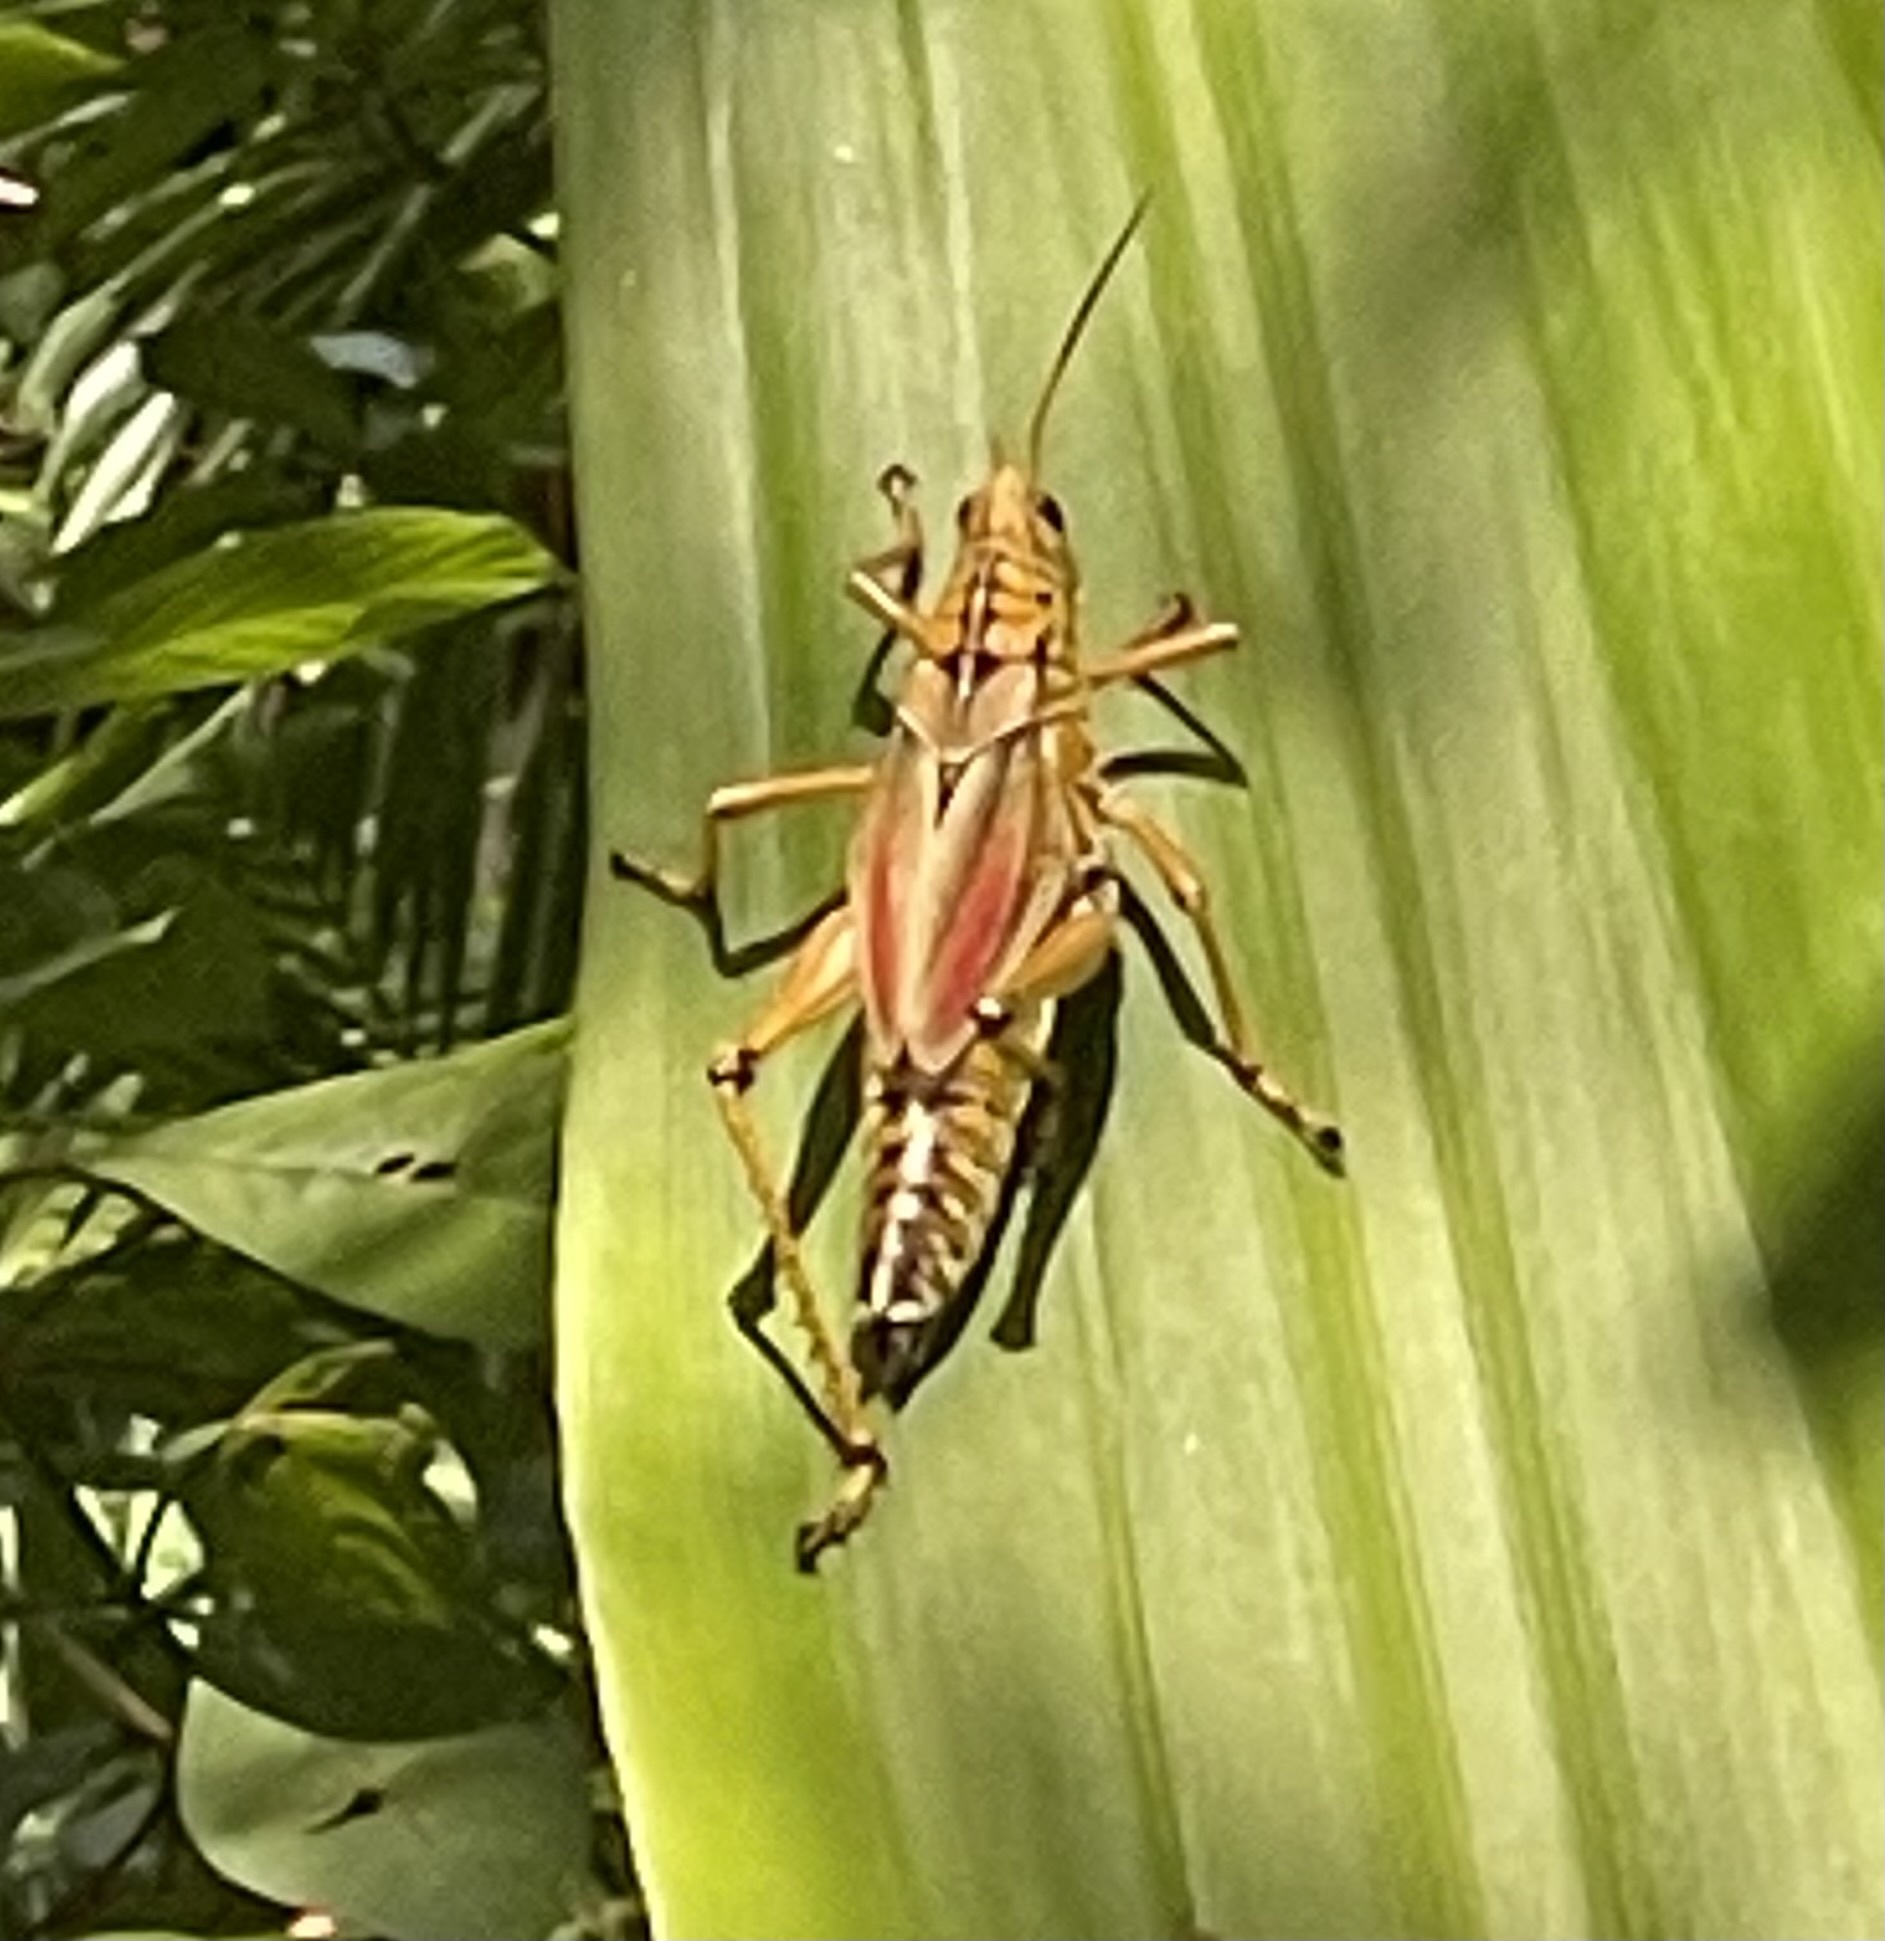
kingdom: Animalia
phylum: Arthropoda
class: Insecta
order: Orthoptera
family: Romaleidae
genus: Romalea
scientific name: Romalea microptera
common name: Eastern lubber grasshopper
